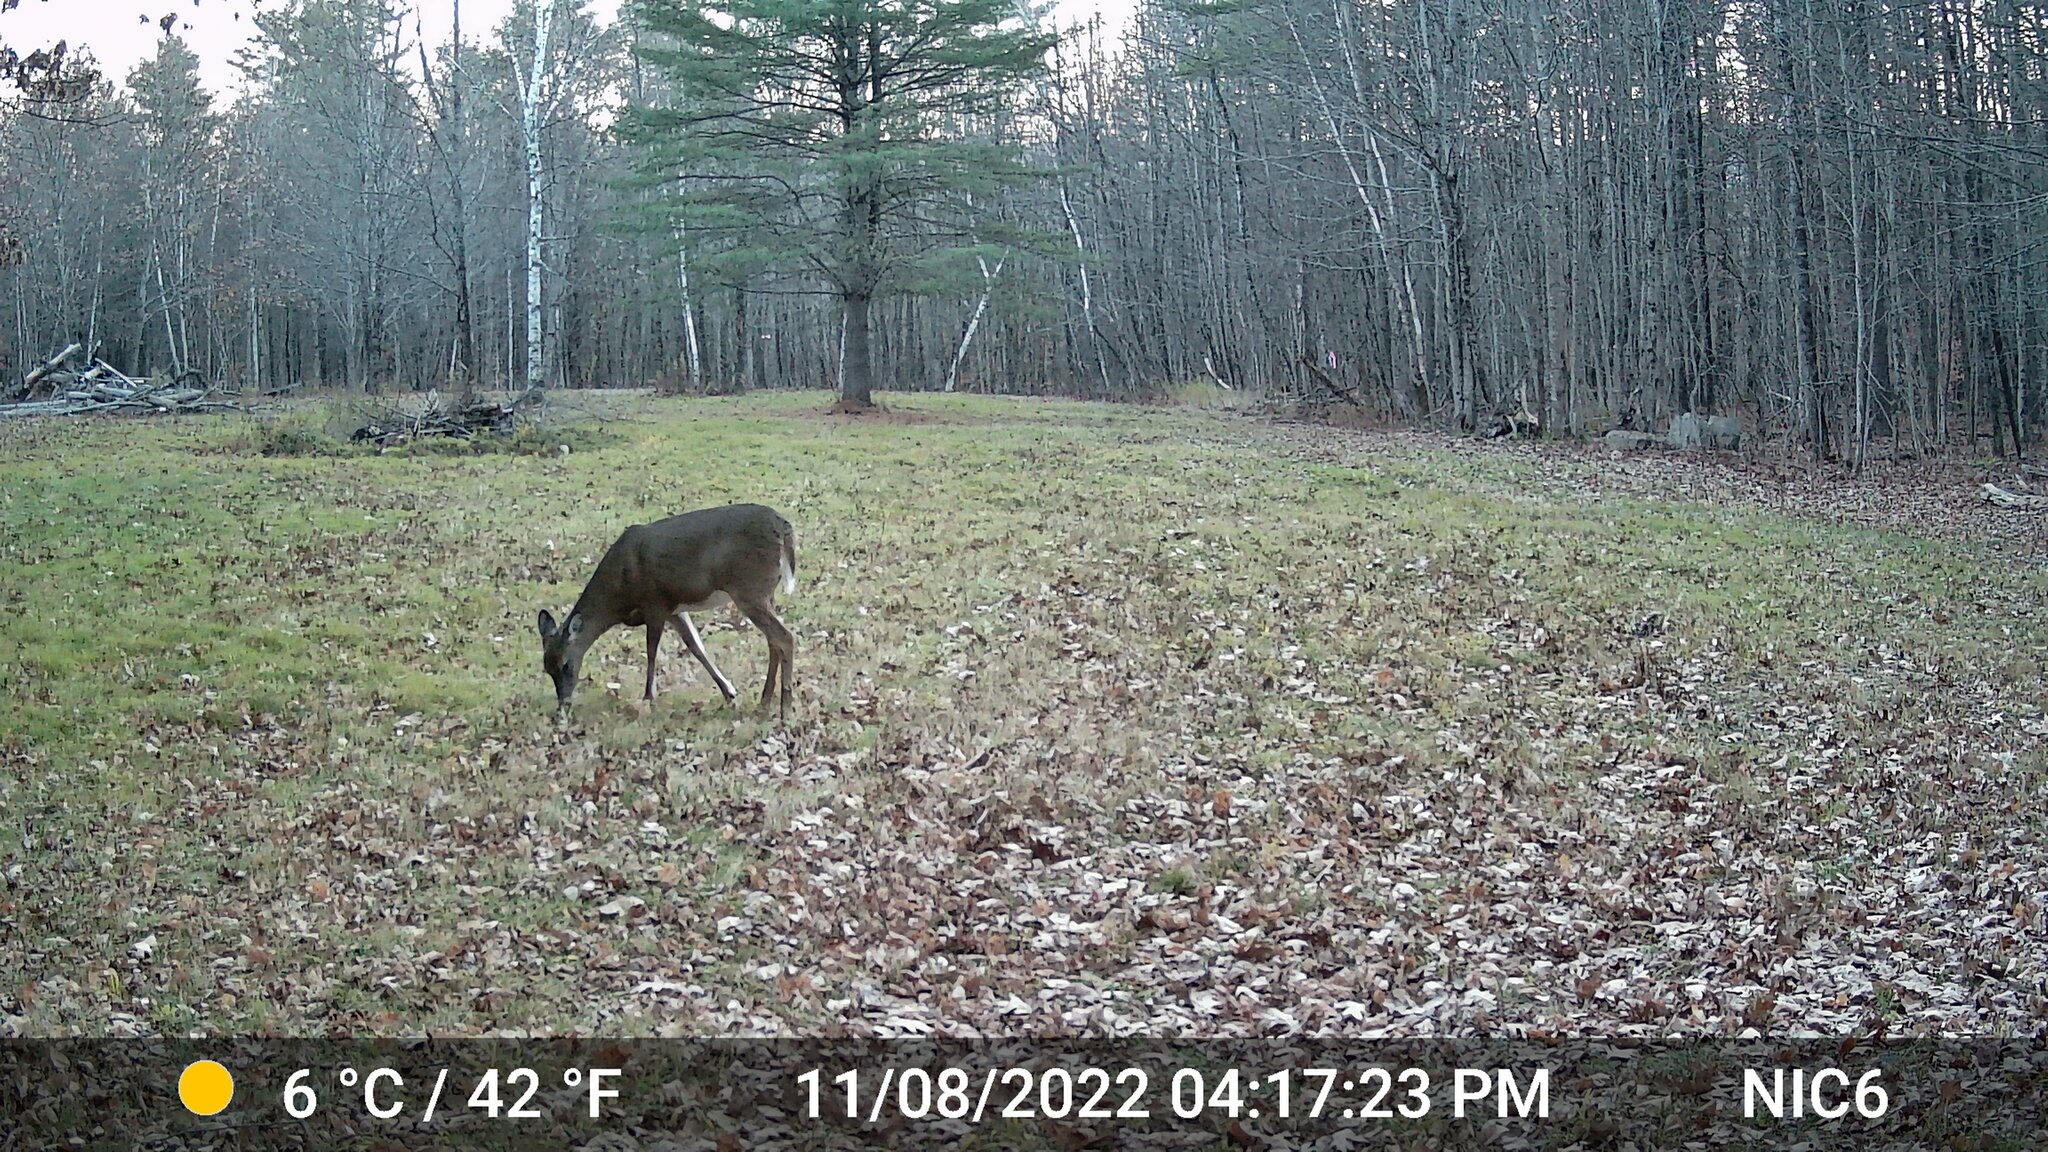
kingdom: Animalia
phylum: Chordata
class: Mammalia
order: Artiodactyla
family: Cervidae
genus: Odocoileus
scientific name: Odocoileus virginianus
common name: White-tailed deer
